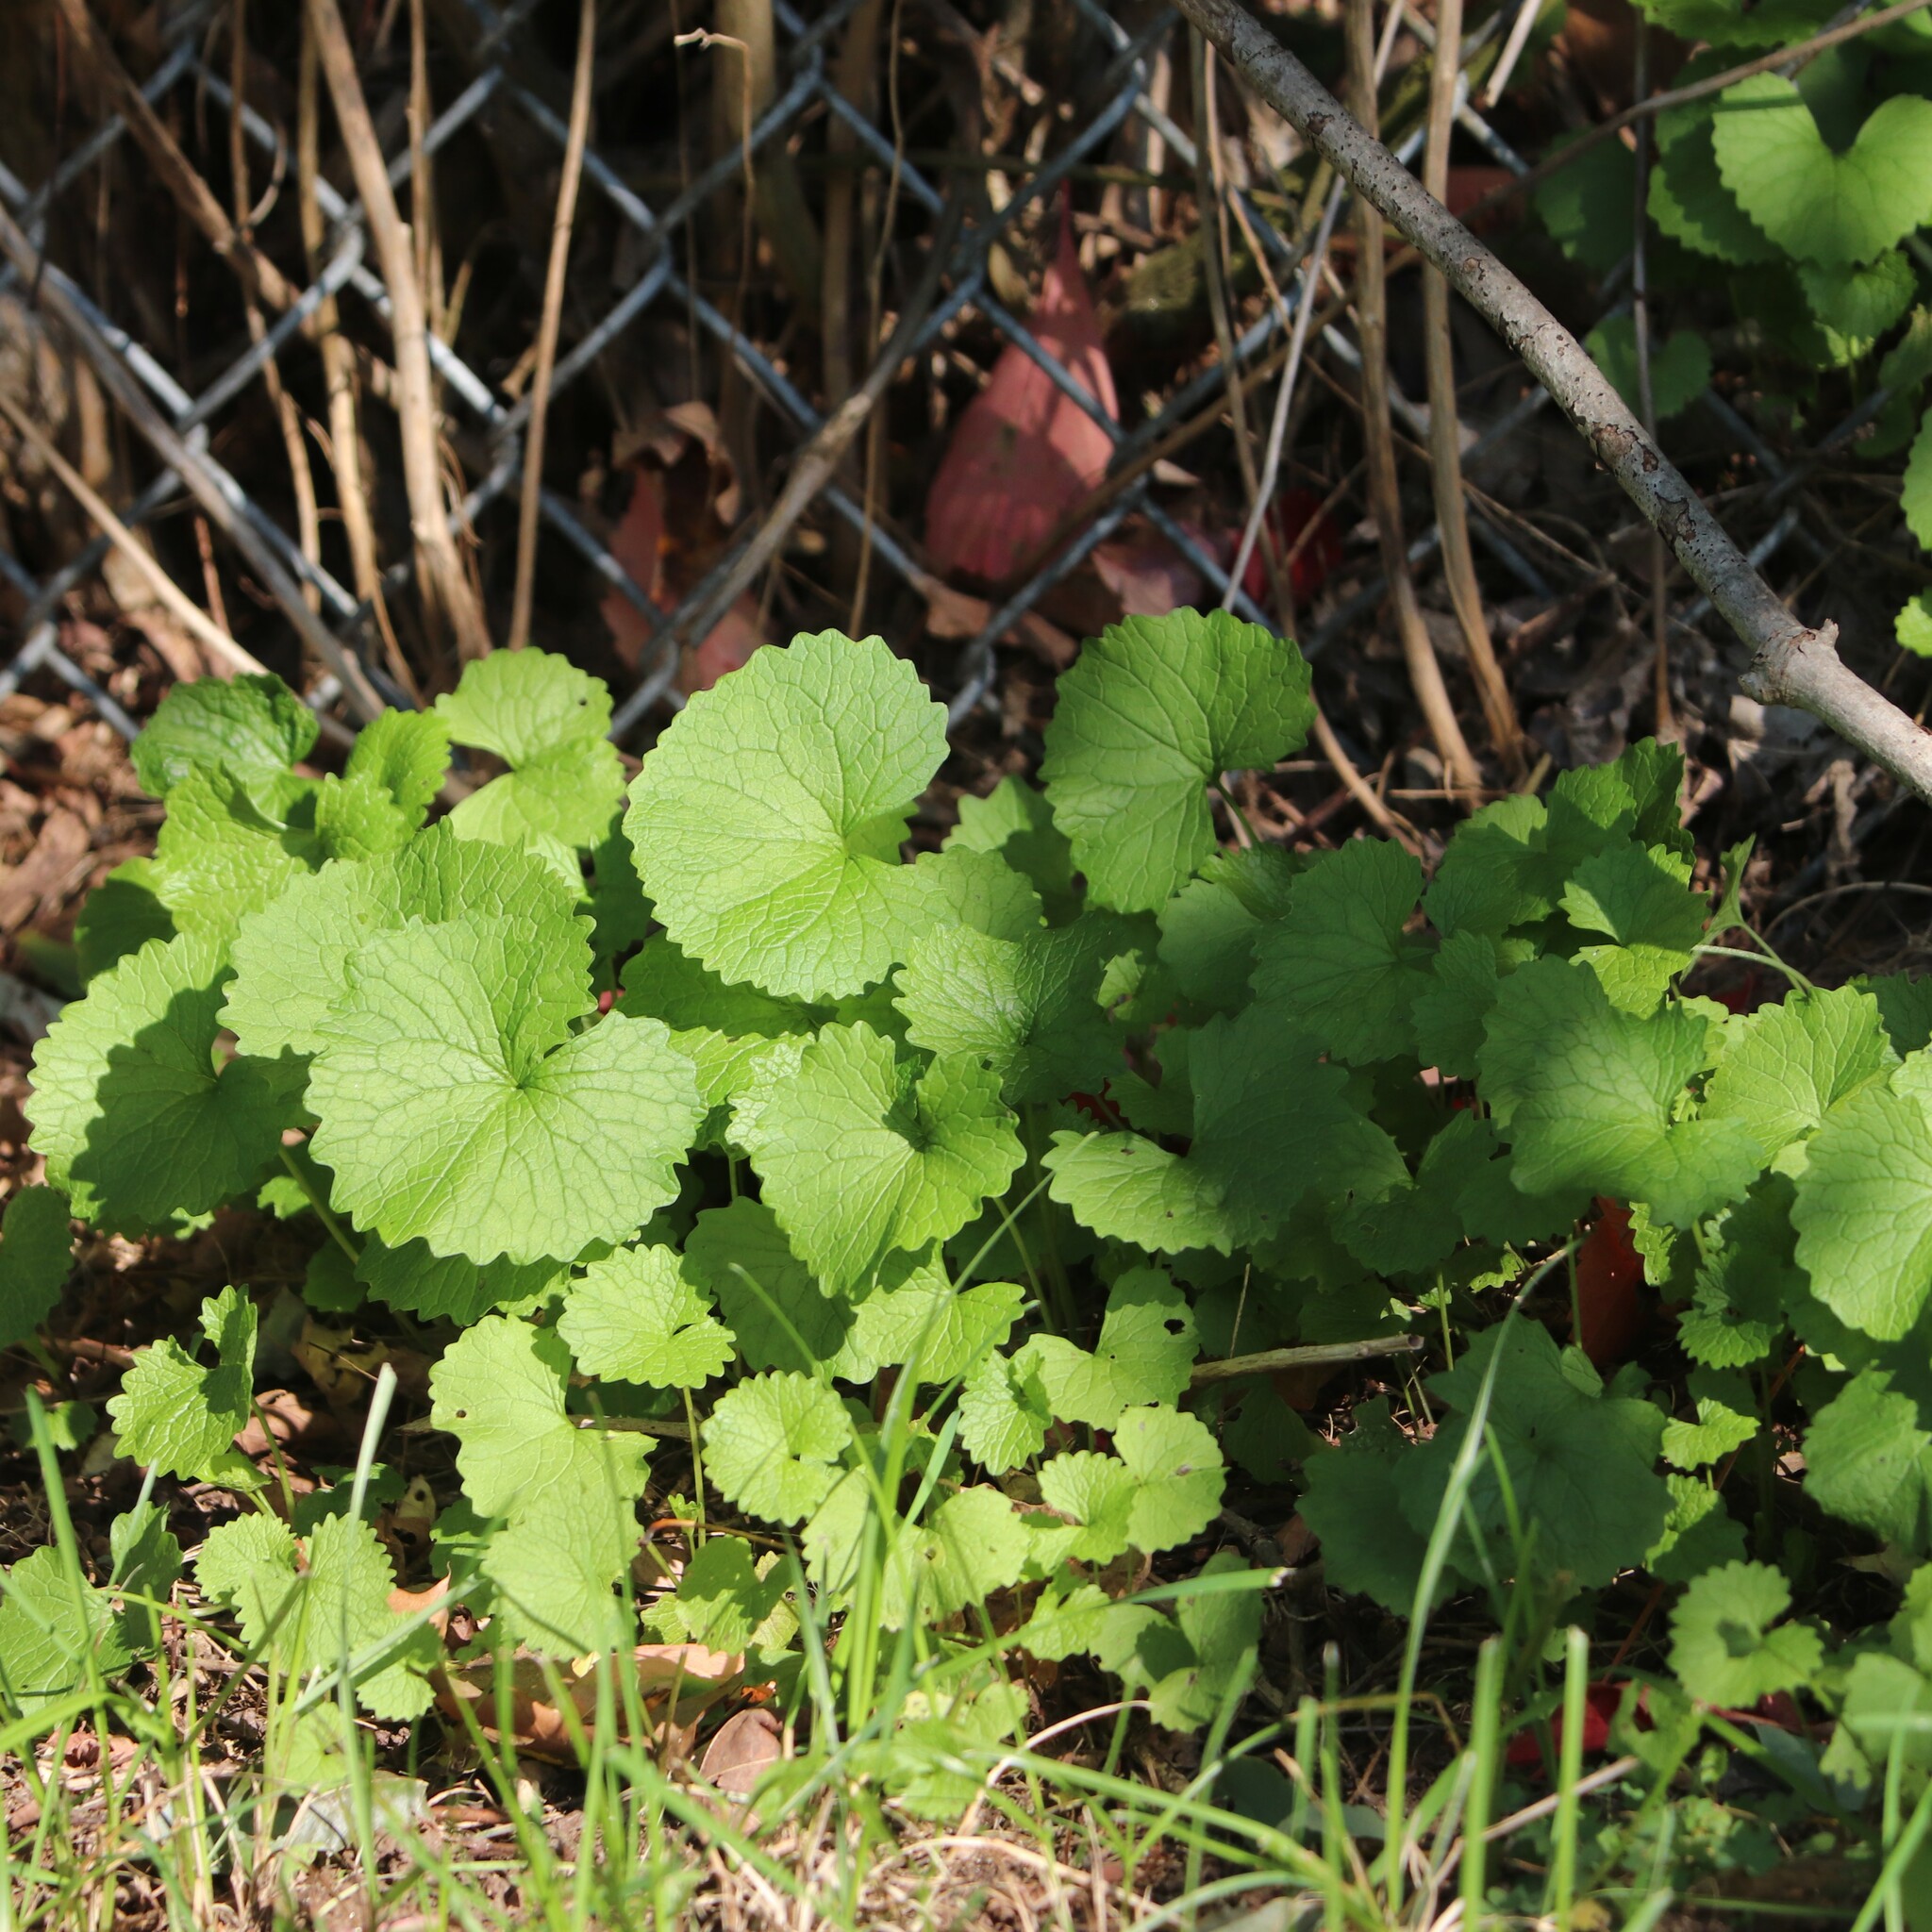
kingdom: Plantae
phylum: Tracheophyta
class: Magnoliopsida
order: Brassicales
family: Brassicaceae
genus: Alliaria
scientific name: Alliaria petiolata
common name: Garlic mustard
